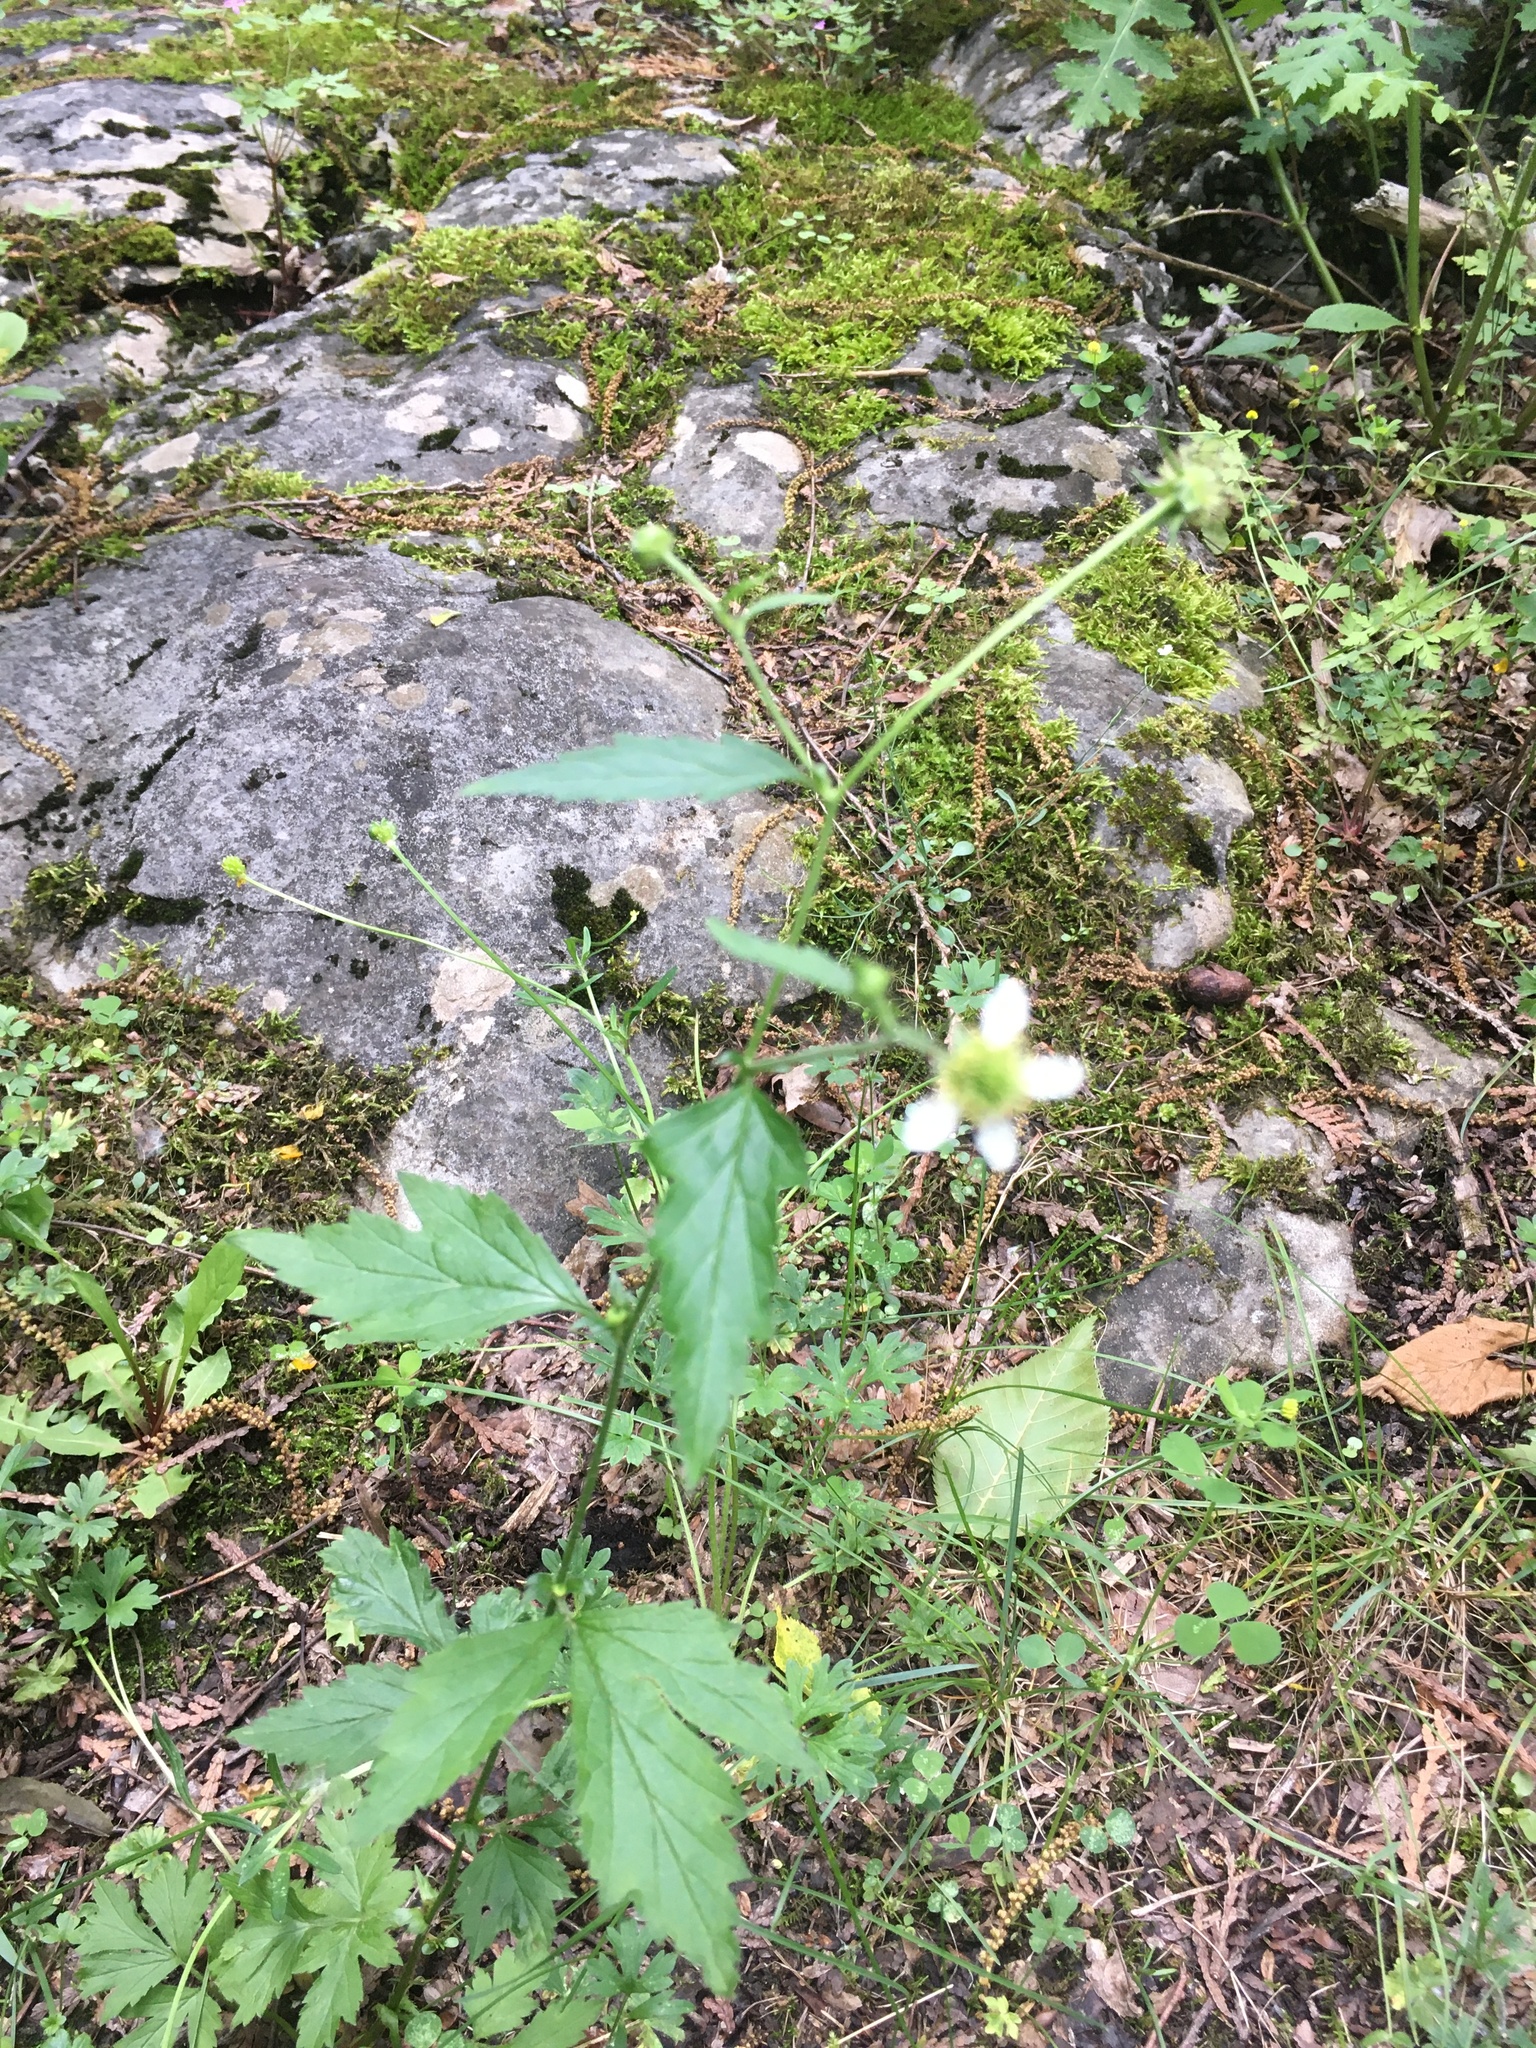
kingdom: Plantae
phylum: Tracheophyta
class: Magnoliopsida
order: Rosales
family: Rosaceae
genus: Geum
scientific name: Geum canadense
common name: White avens
